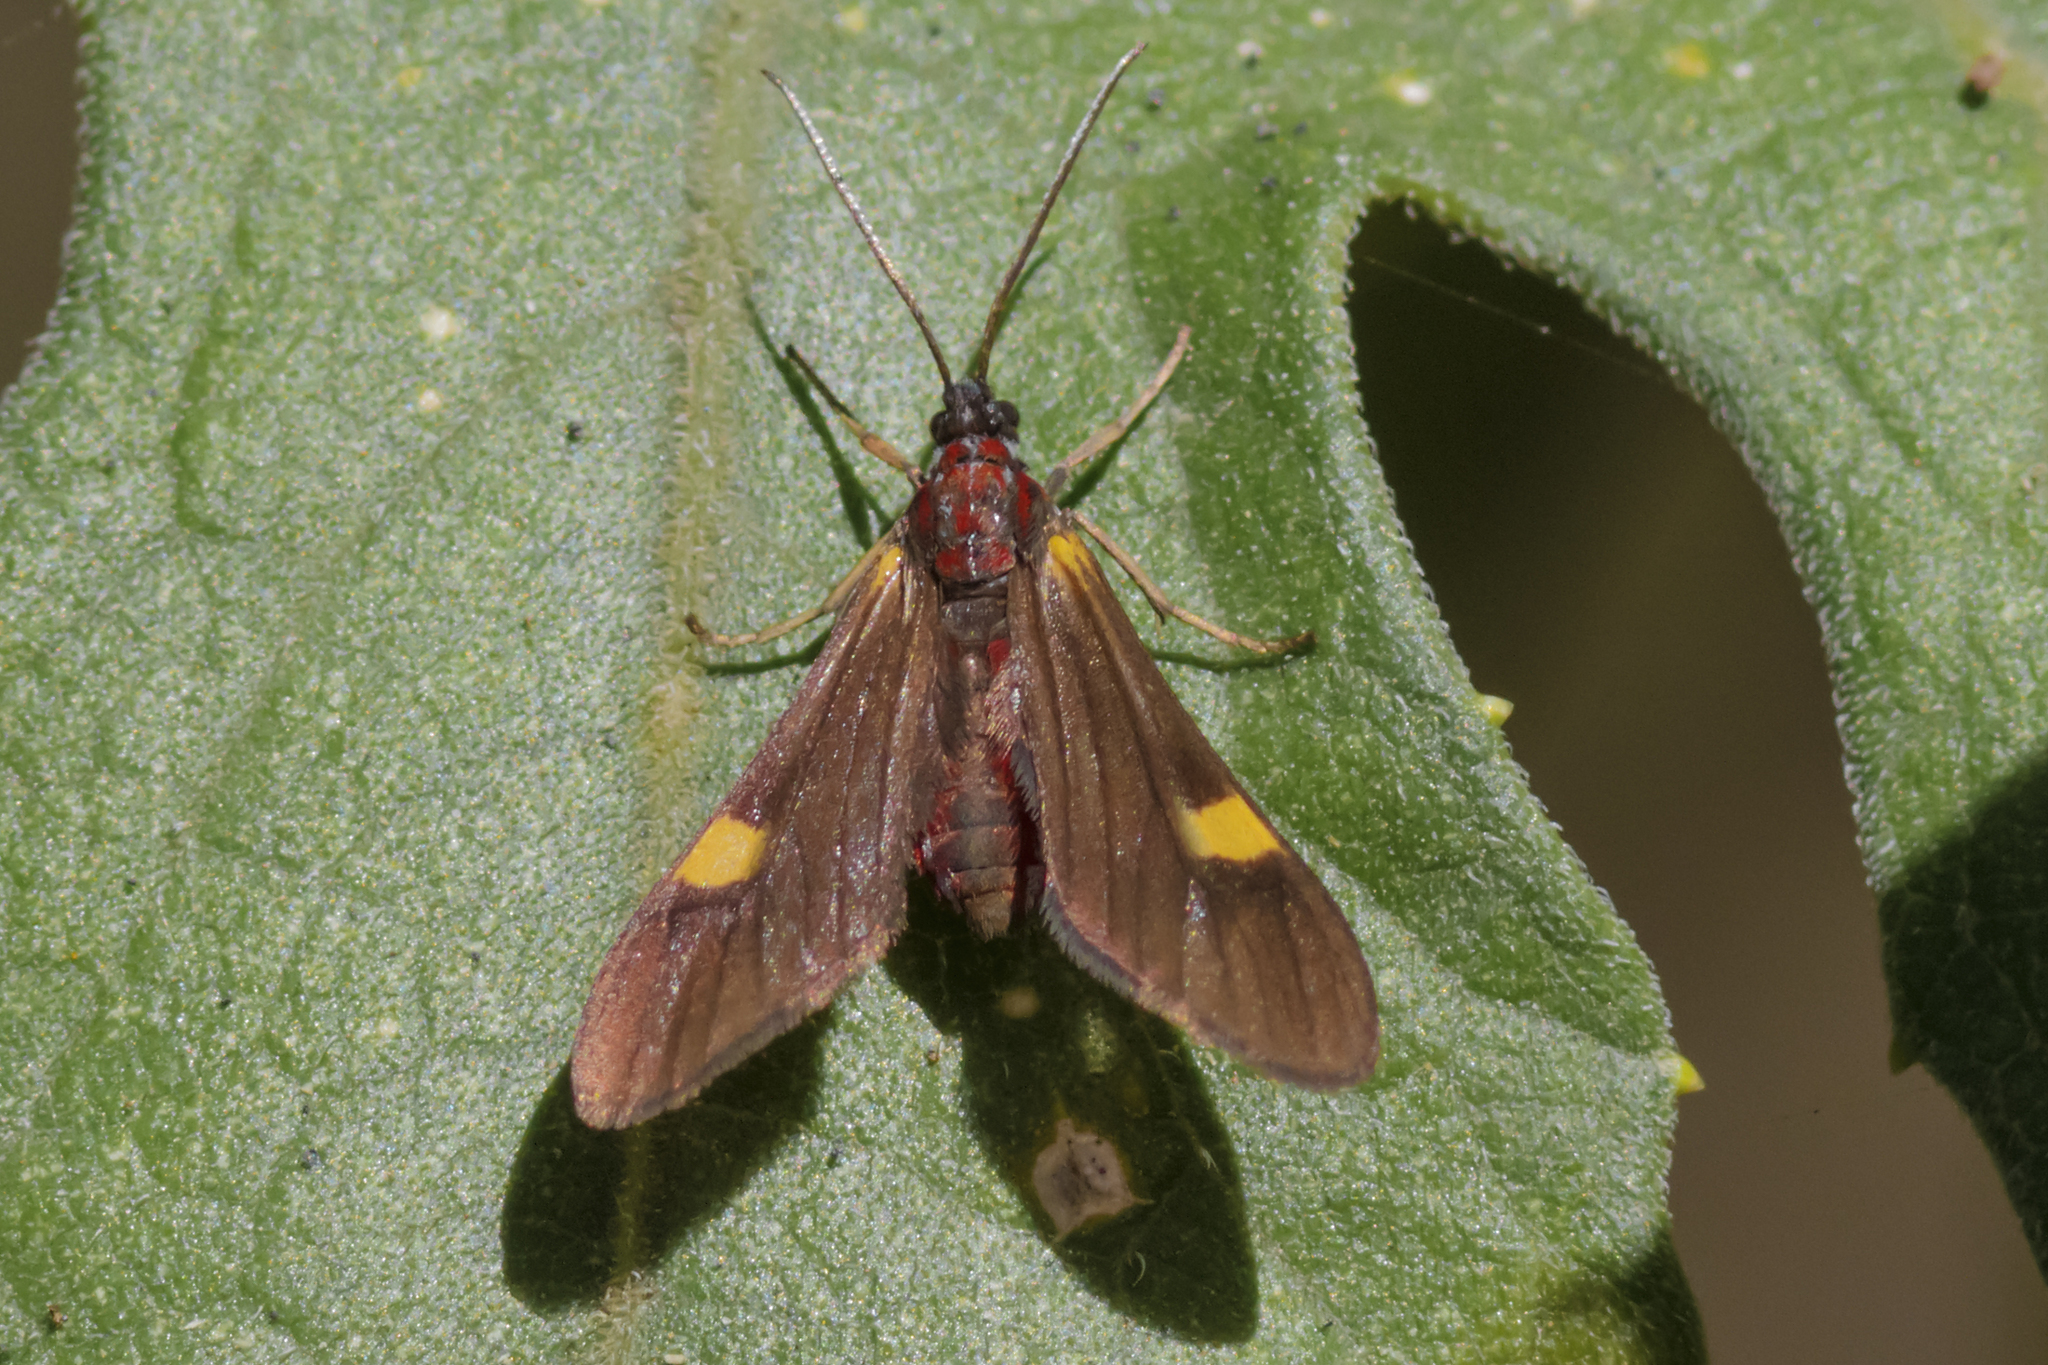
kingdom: Animalia
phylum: Arthropoda
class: Insecta
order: Lepidoptera
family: Erebidae
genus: Rhynchopyga
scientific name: Rhynchopyga meisteri
